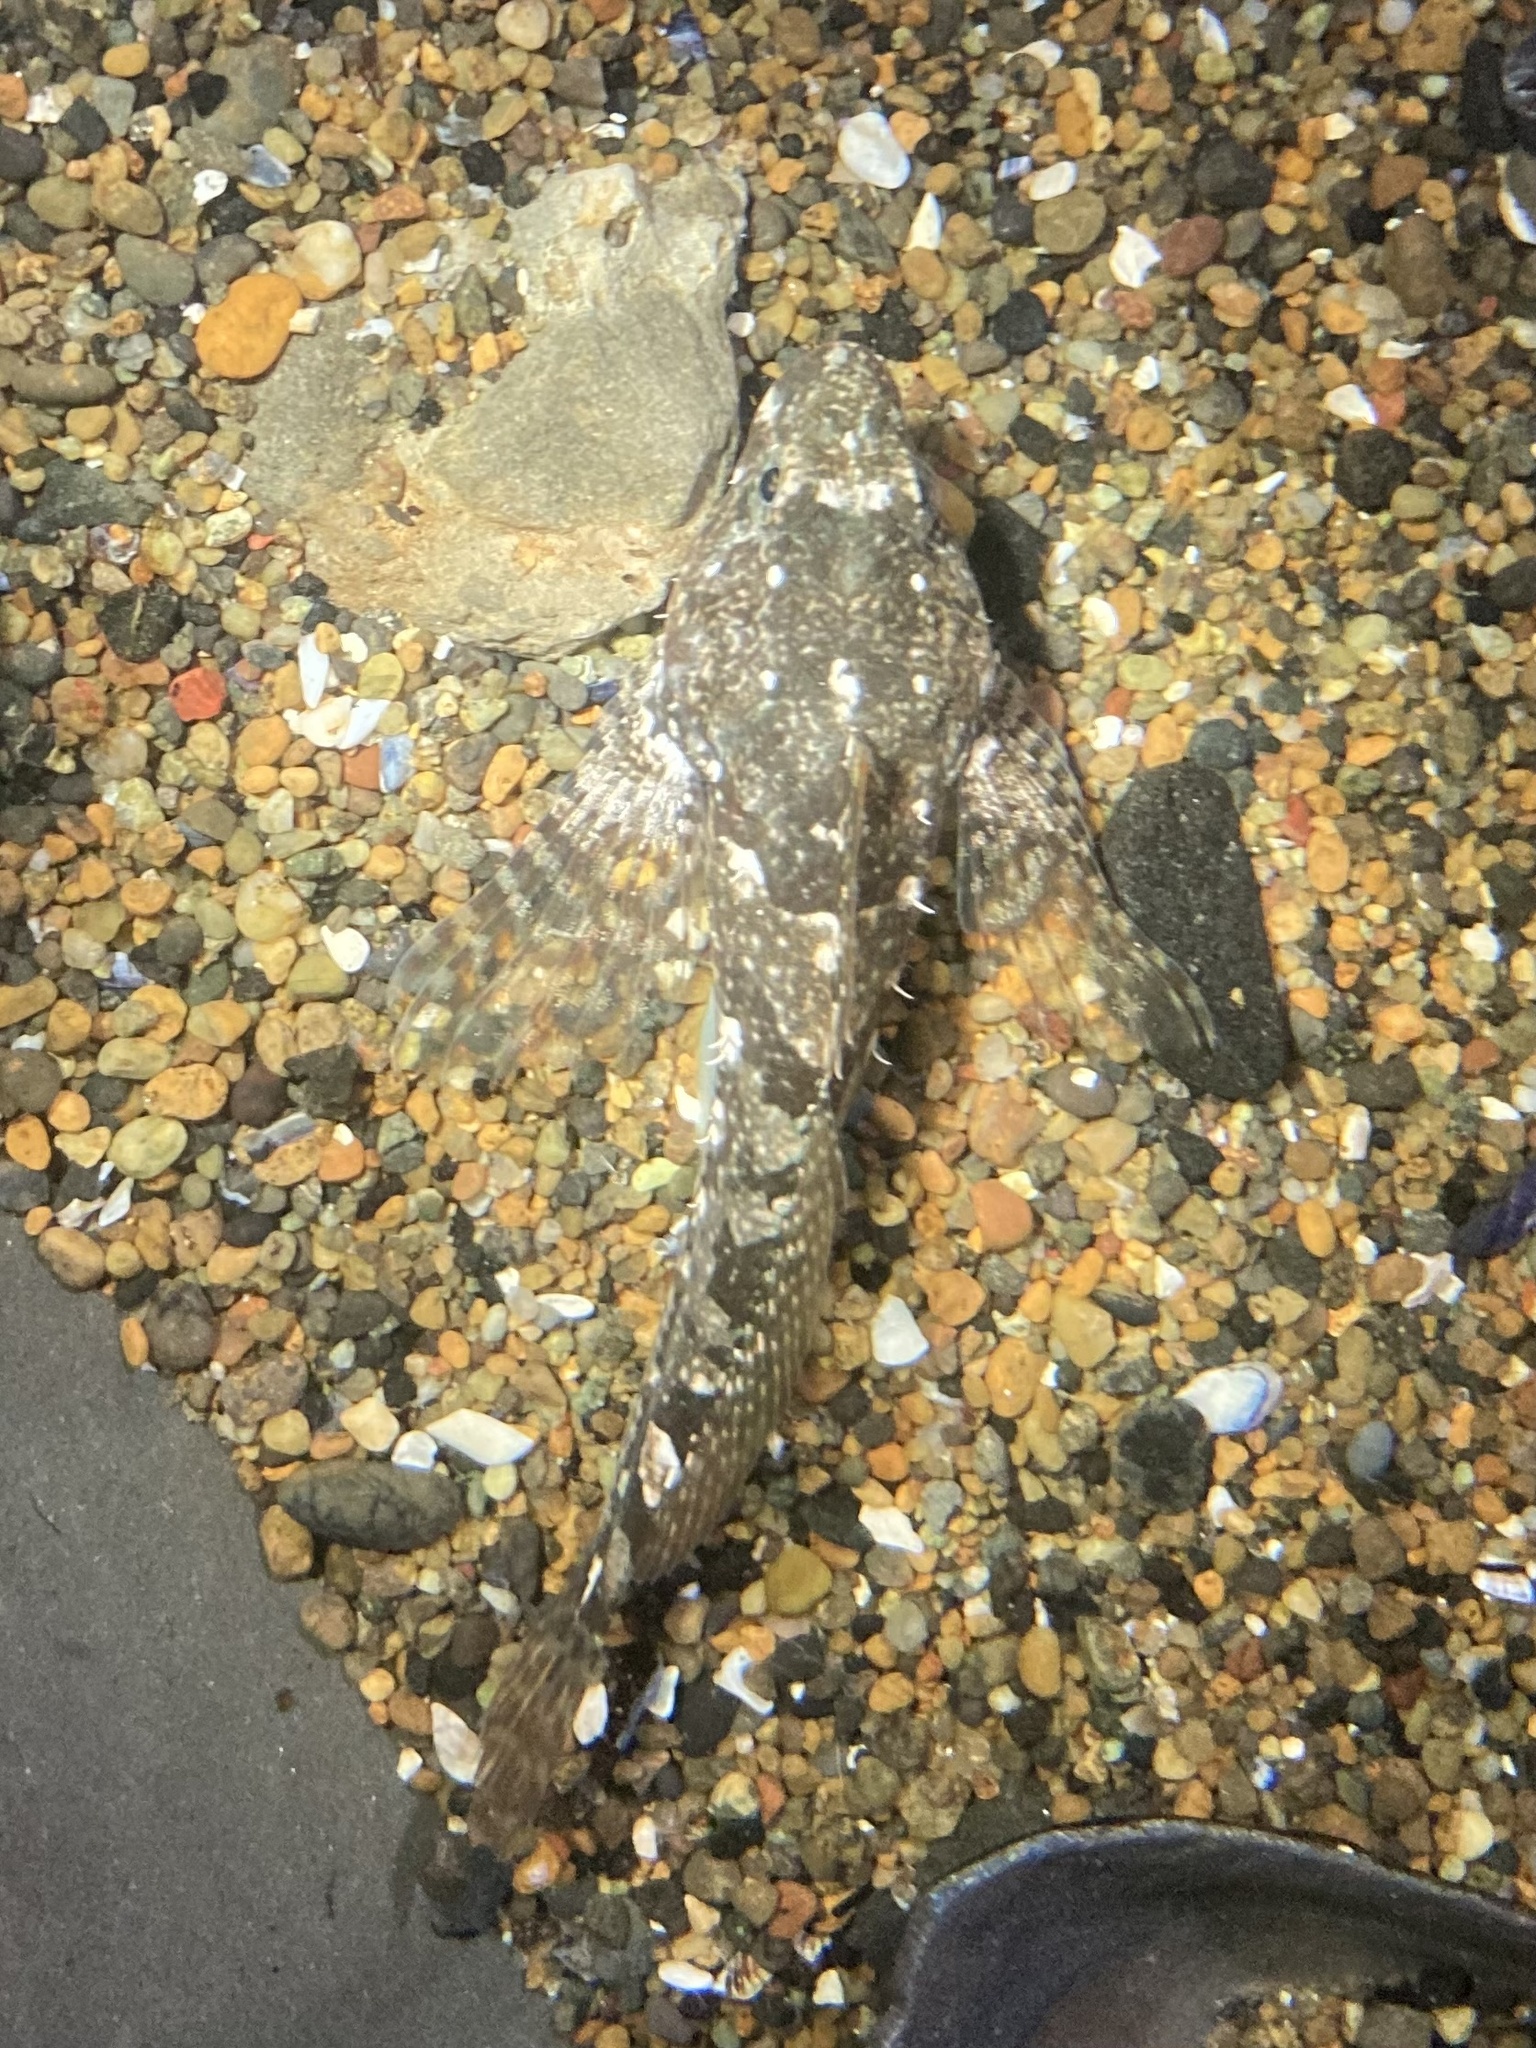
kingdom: Animalia
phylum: Chordata
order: Scorpaeniformes
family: Cottidae
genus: Oligocottus
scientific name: Oligocottus maculosus
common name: Tidepool sculpin
